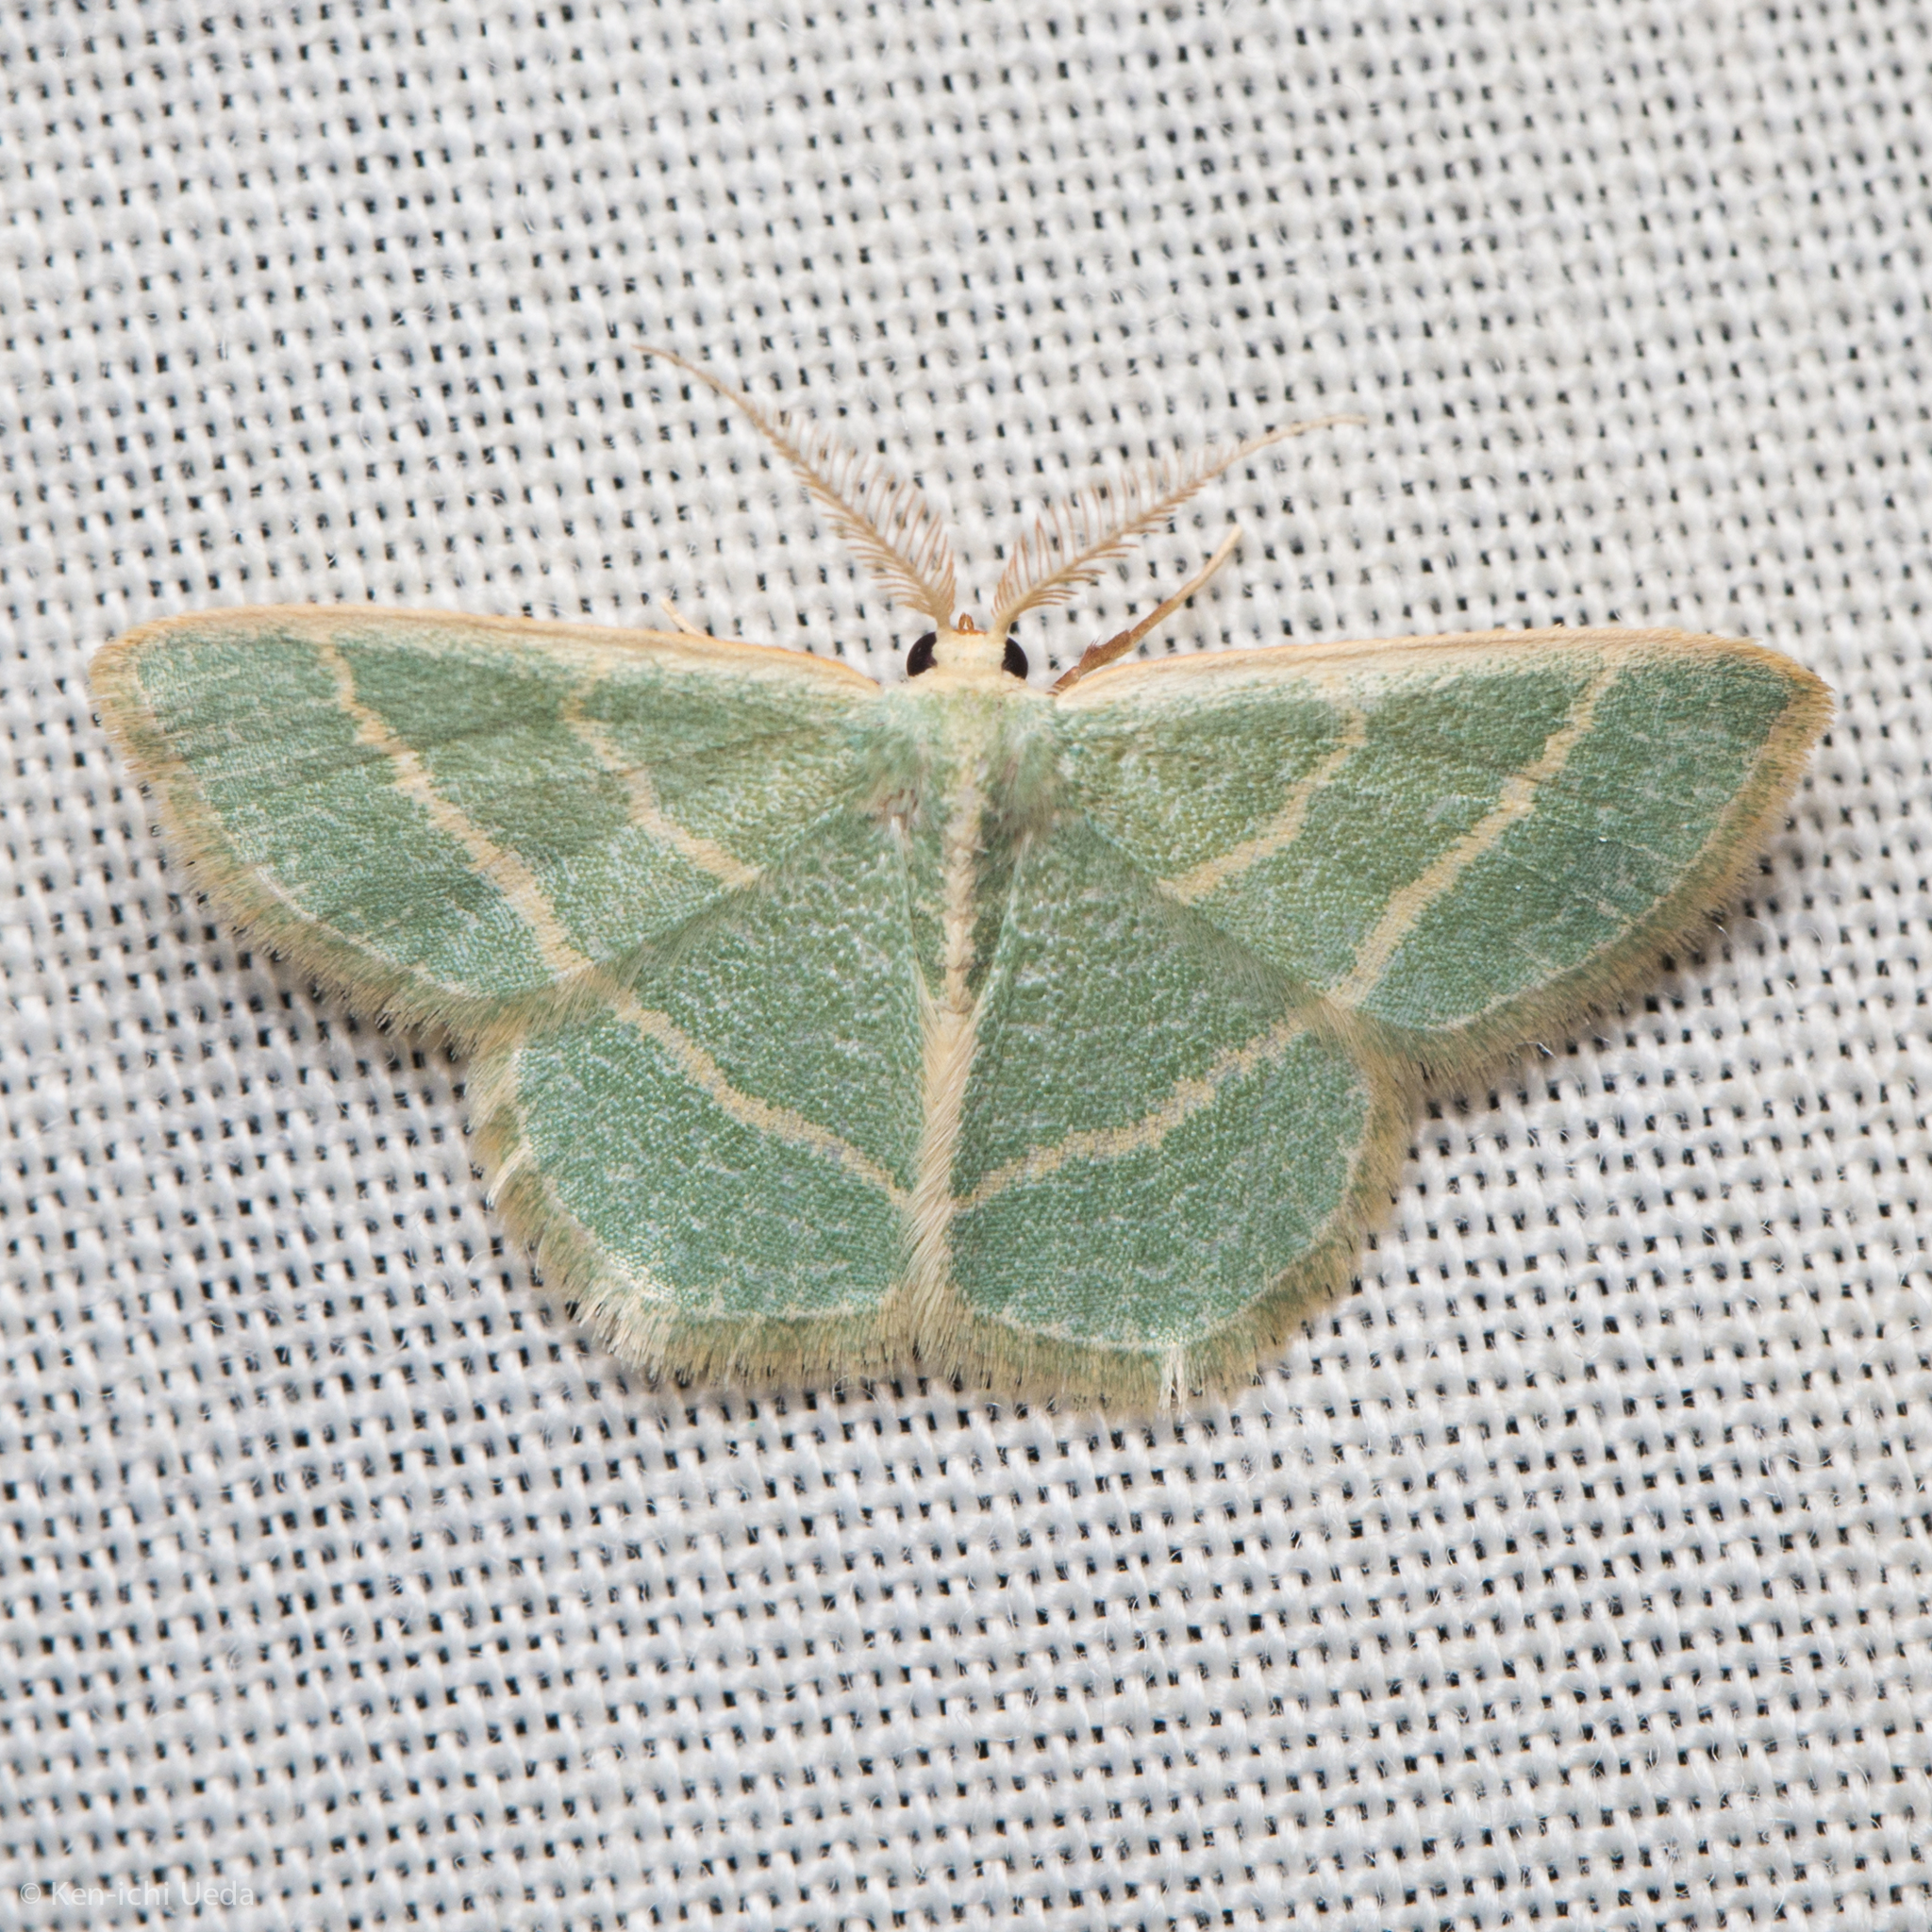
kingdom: Animalia
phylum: Arthropoda
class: Insecta
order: Lepidoptera
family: Geometridae
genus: Chlorochlamys
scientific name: Chlorochlamys chloroleucaria
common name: Blackberry looper
